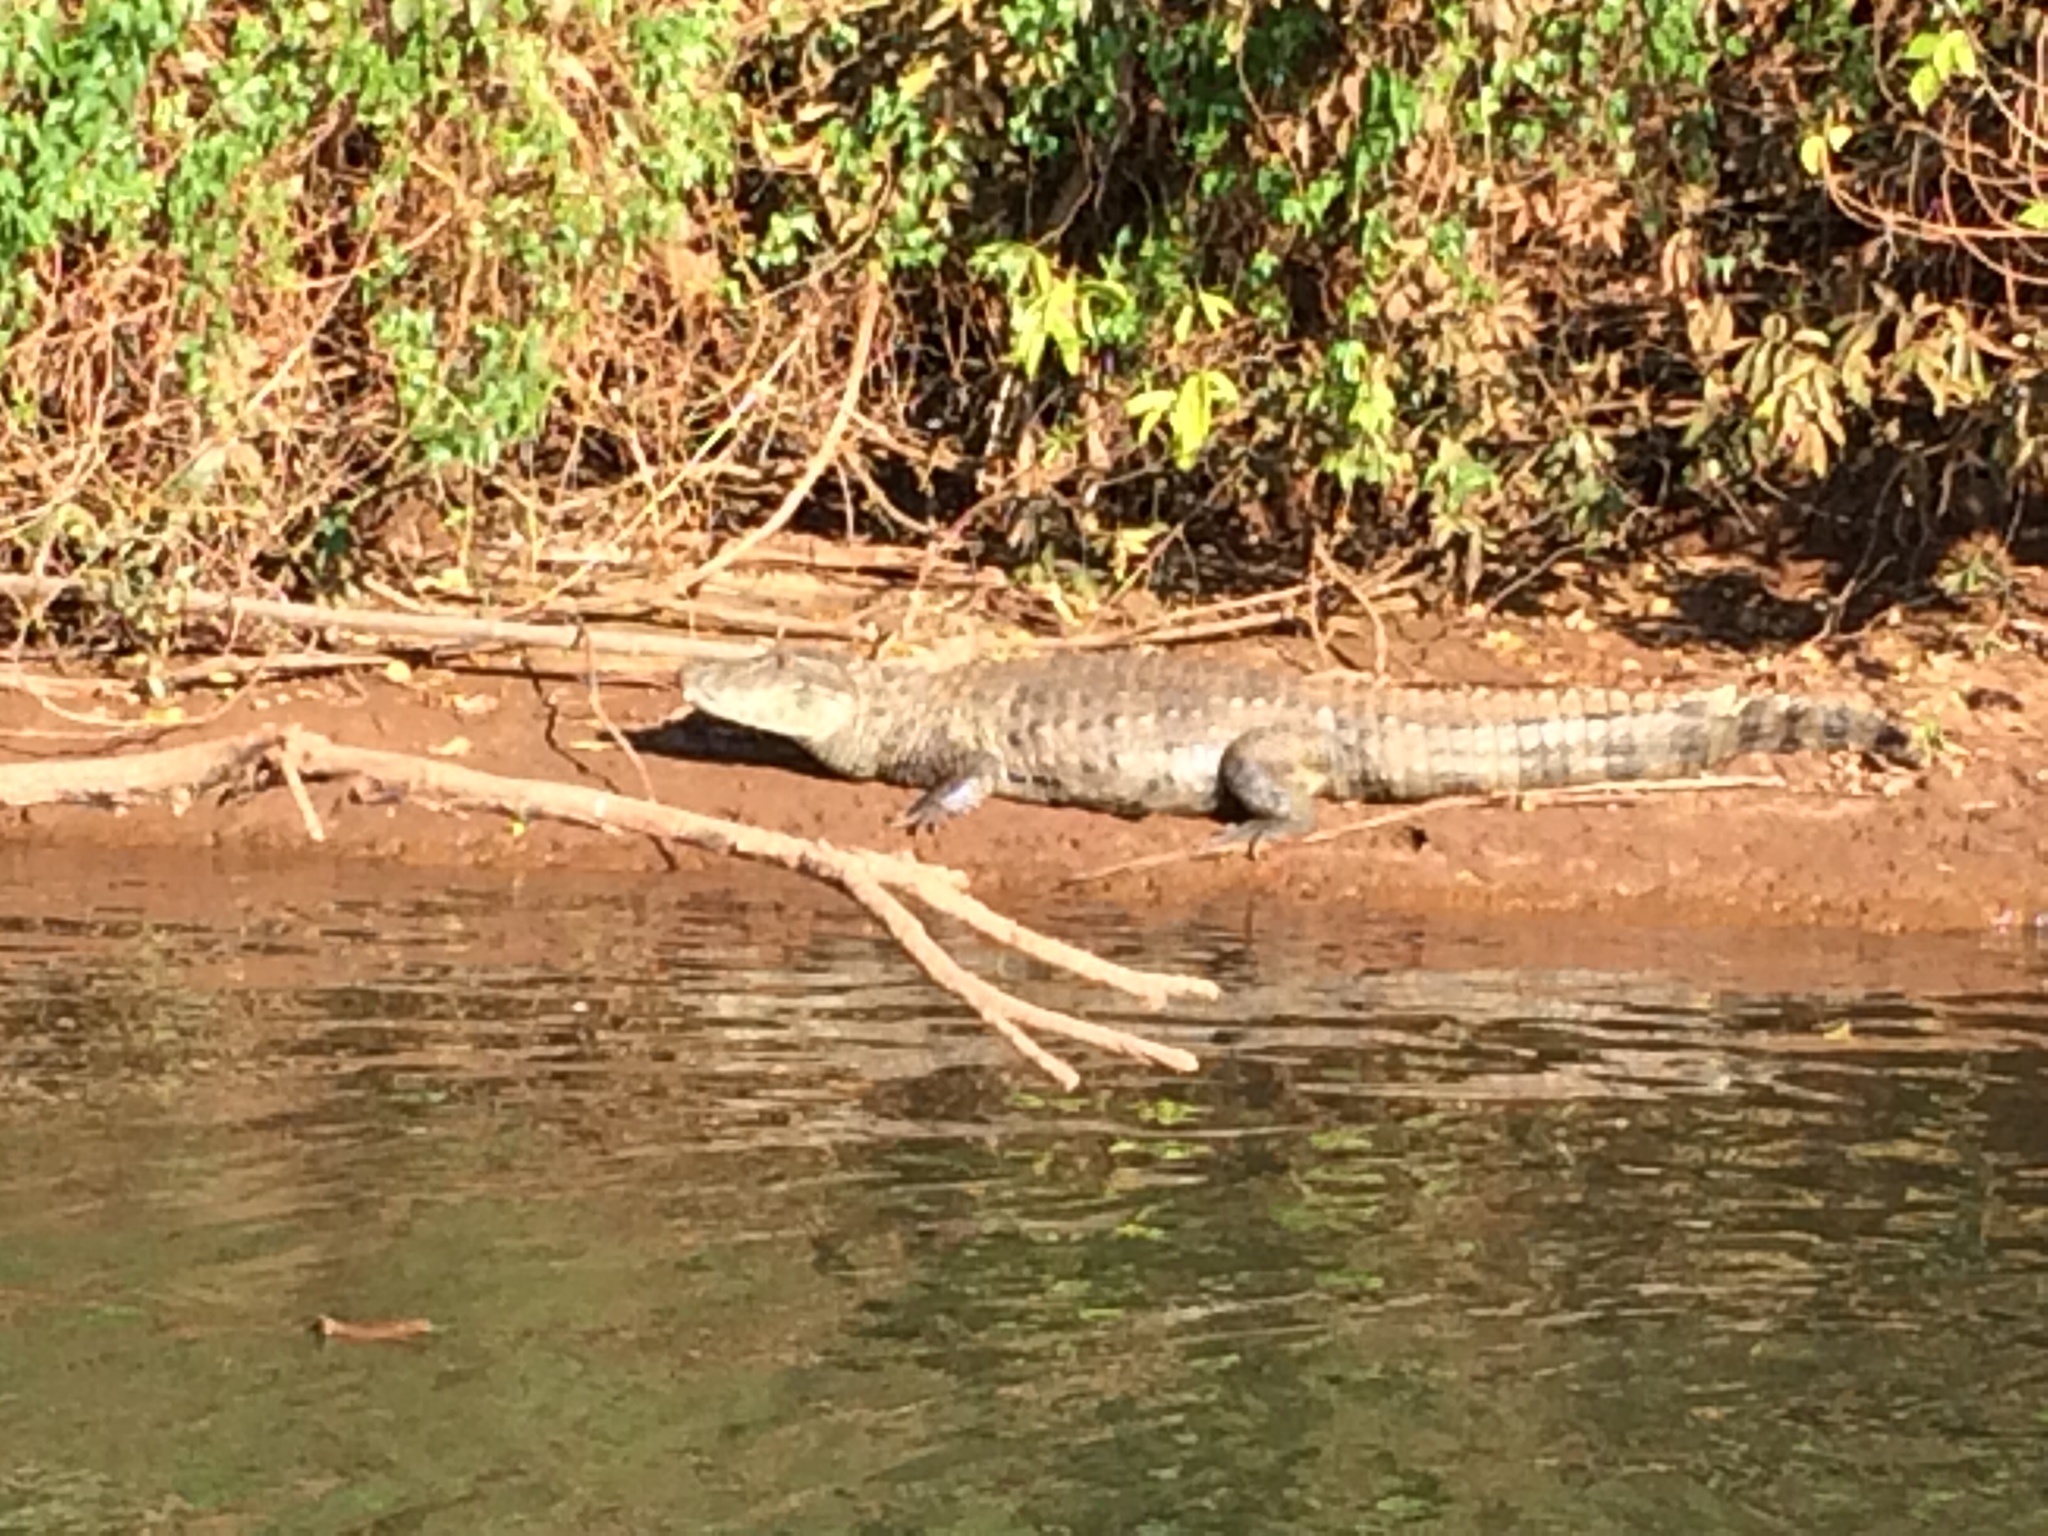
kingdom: Animalia
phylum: Chordata
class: Crocodylia
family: Alligatoridae
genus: Caiman
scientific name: Caiman latirostris
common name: Broad-snouted caiman
